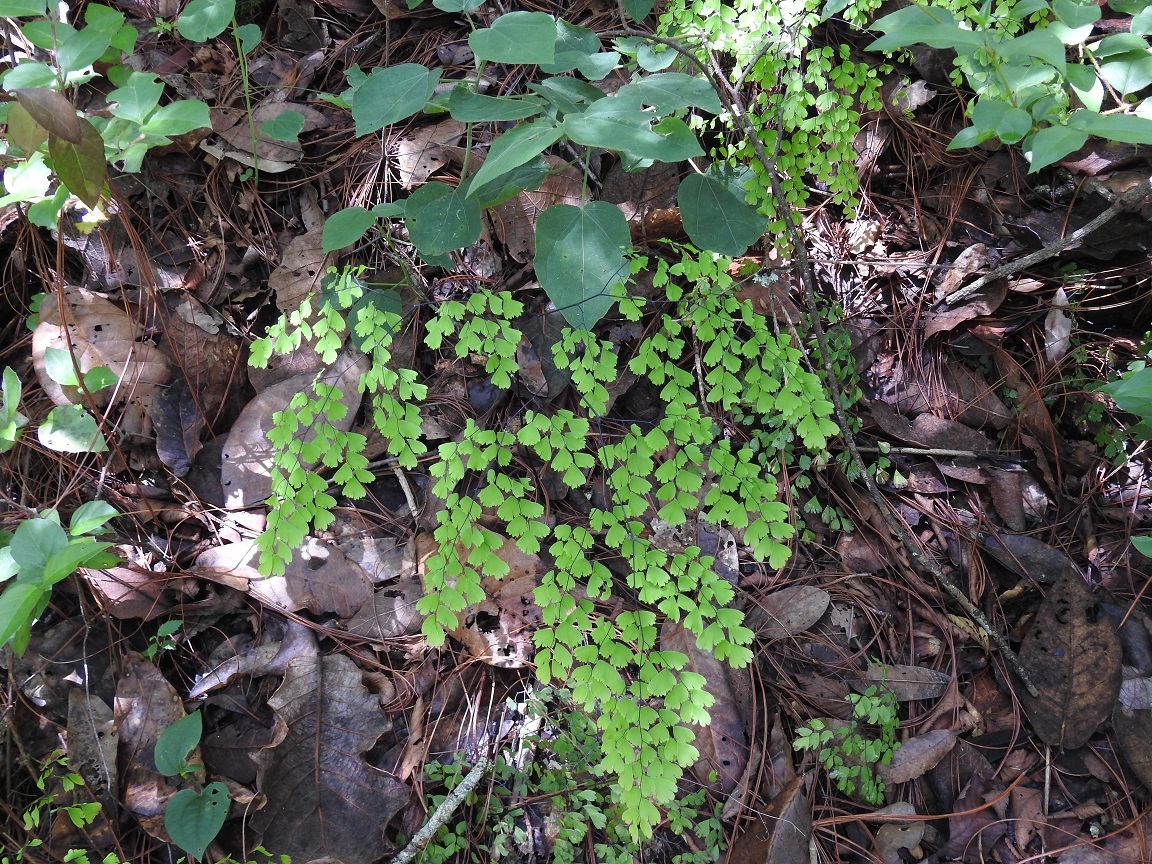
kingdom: Plantae
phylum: Tracheophyta
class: Polypodiopsida
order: Polypodiales
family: Pteridaceae
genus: Adiantum
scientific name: Adiantum andicola
